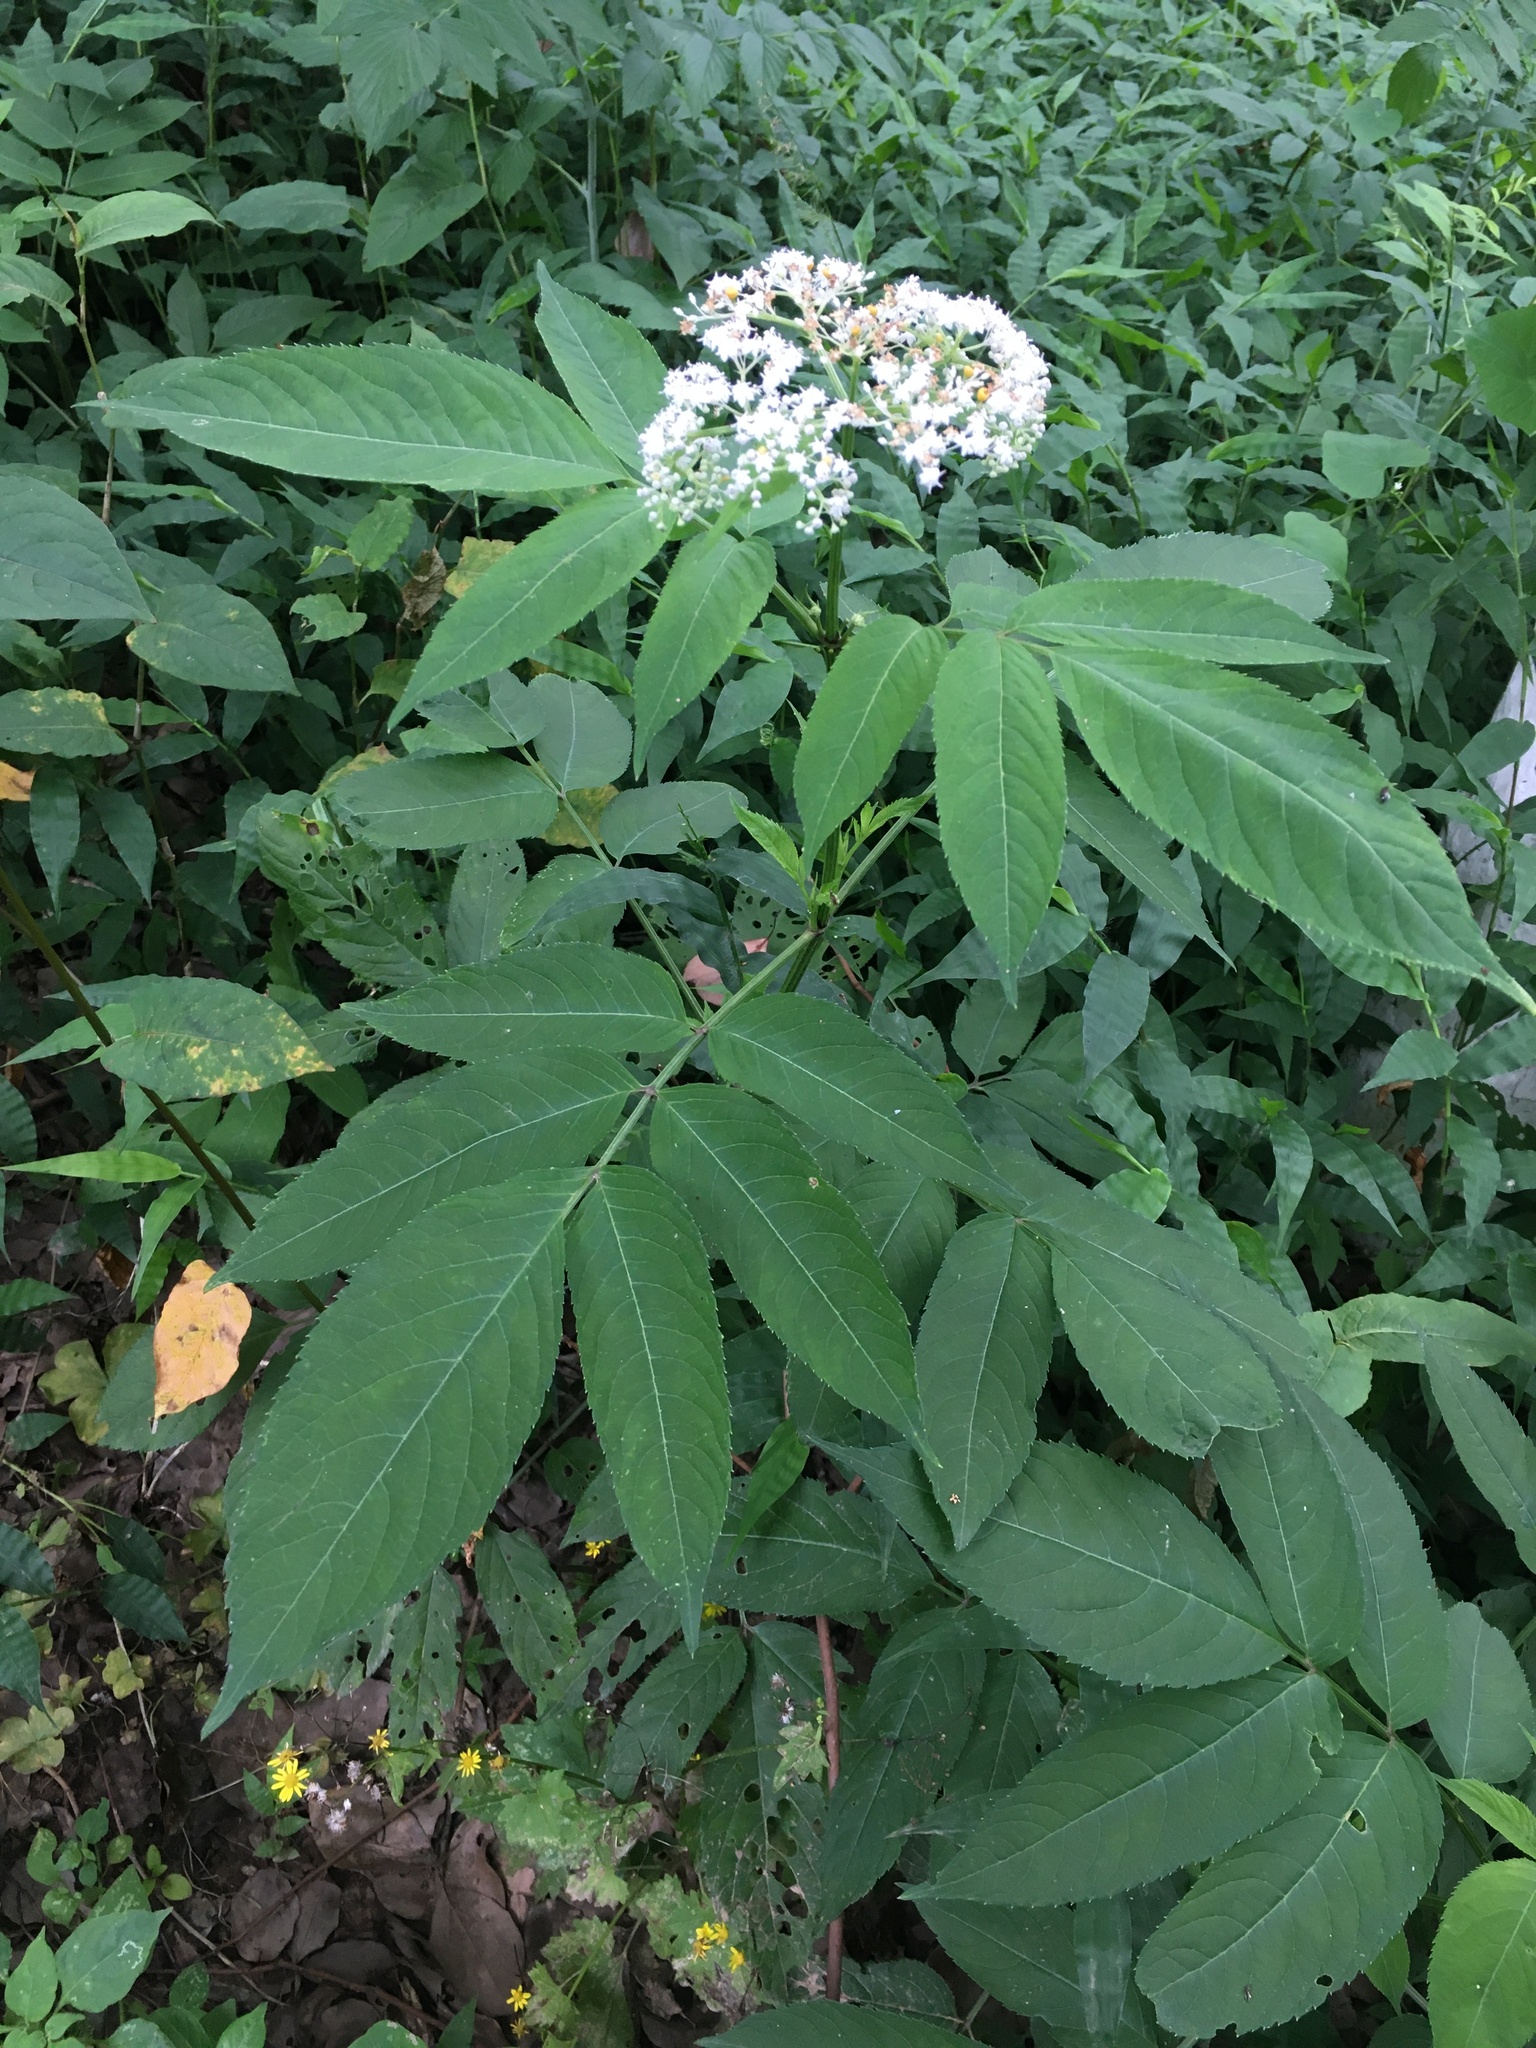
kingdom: Plantae
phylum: Tracheophyta
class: Magnoliopsida
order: Dipsacales
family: Viburnaceae
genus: Sambucus
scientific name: Sambucus javanica
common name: Chinese elder
